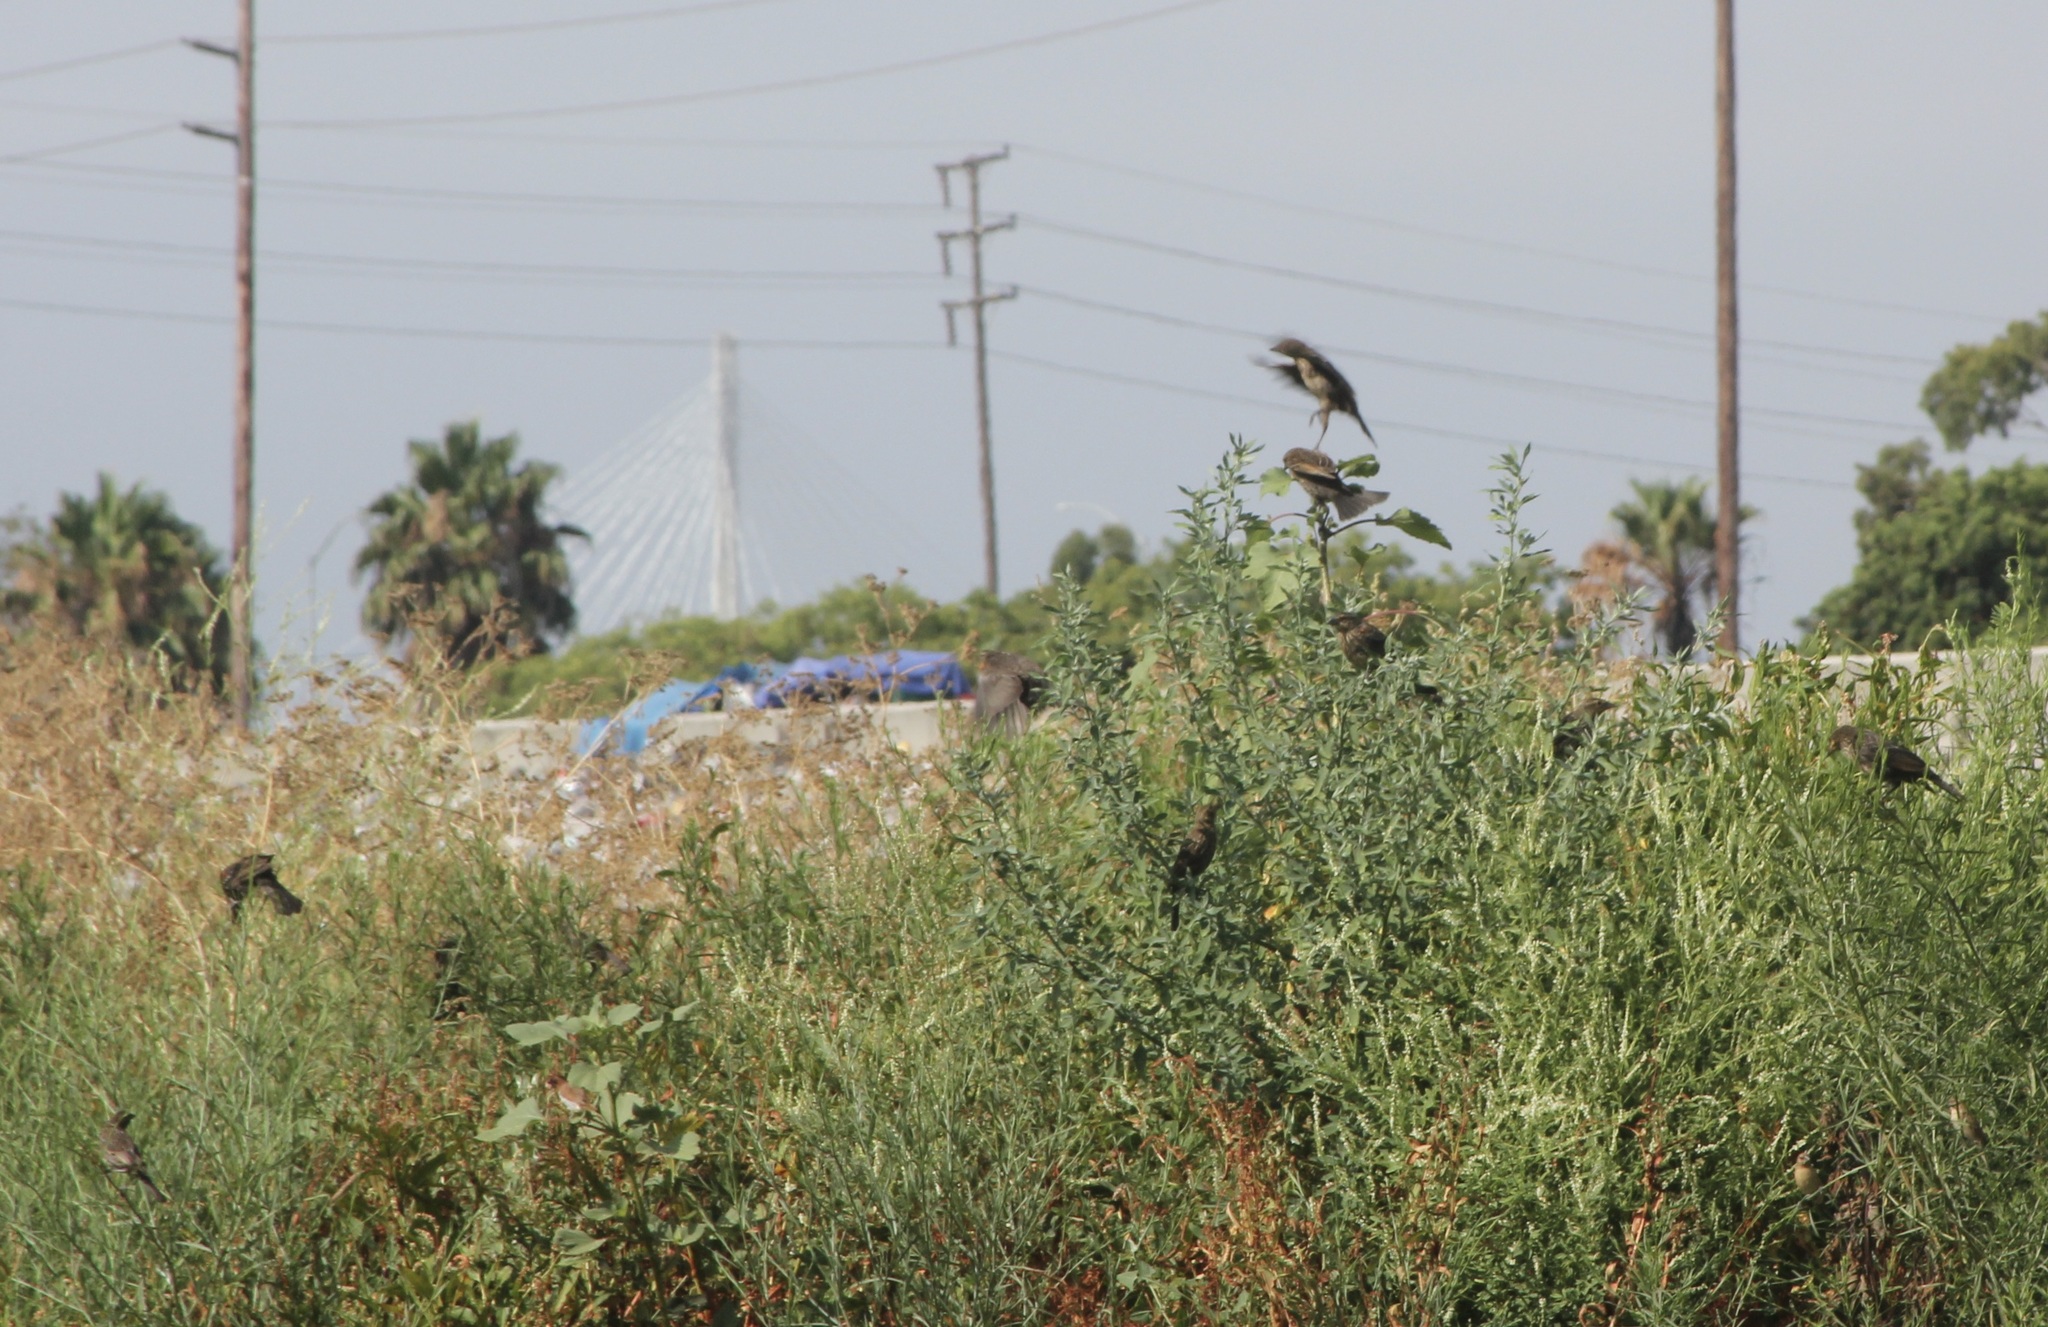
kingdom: Animalia
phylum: Chordata
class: Aves
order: Passeriformes
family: Icteridae
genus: Molothrus
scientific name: Molothrus ater
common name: Brown-headed cowbird
